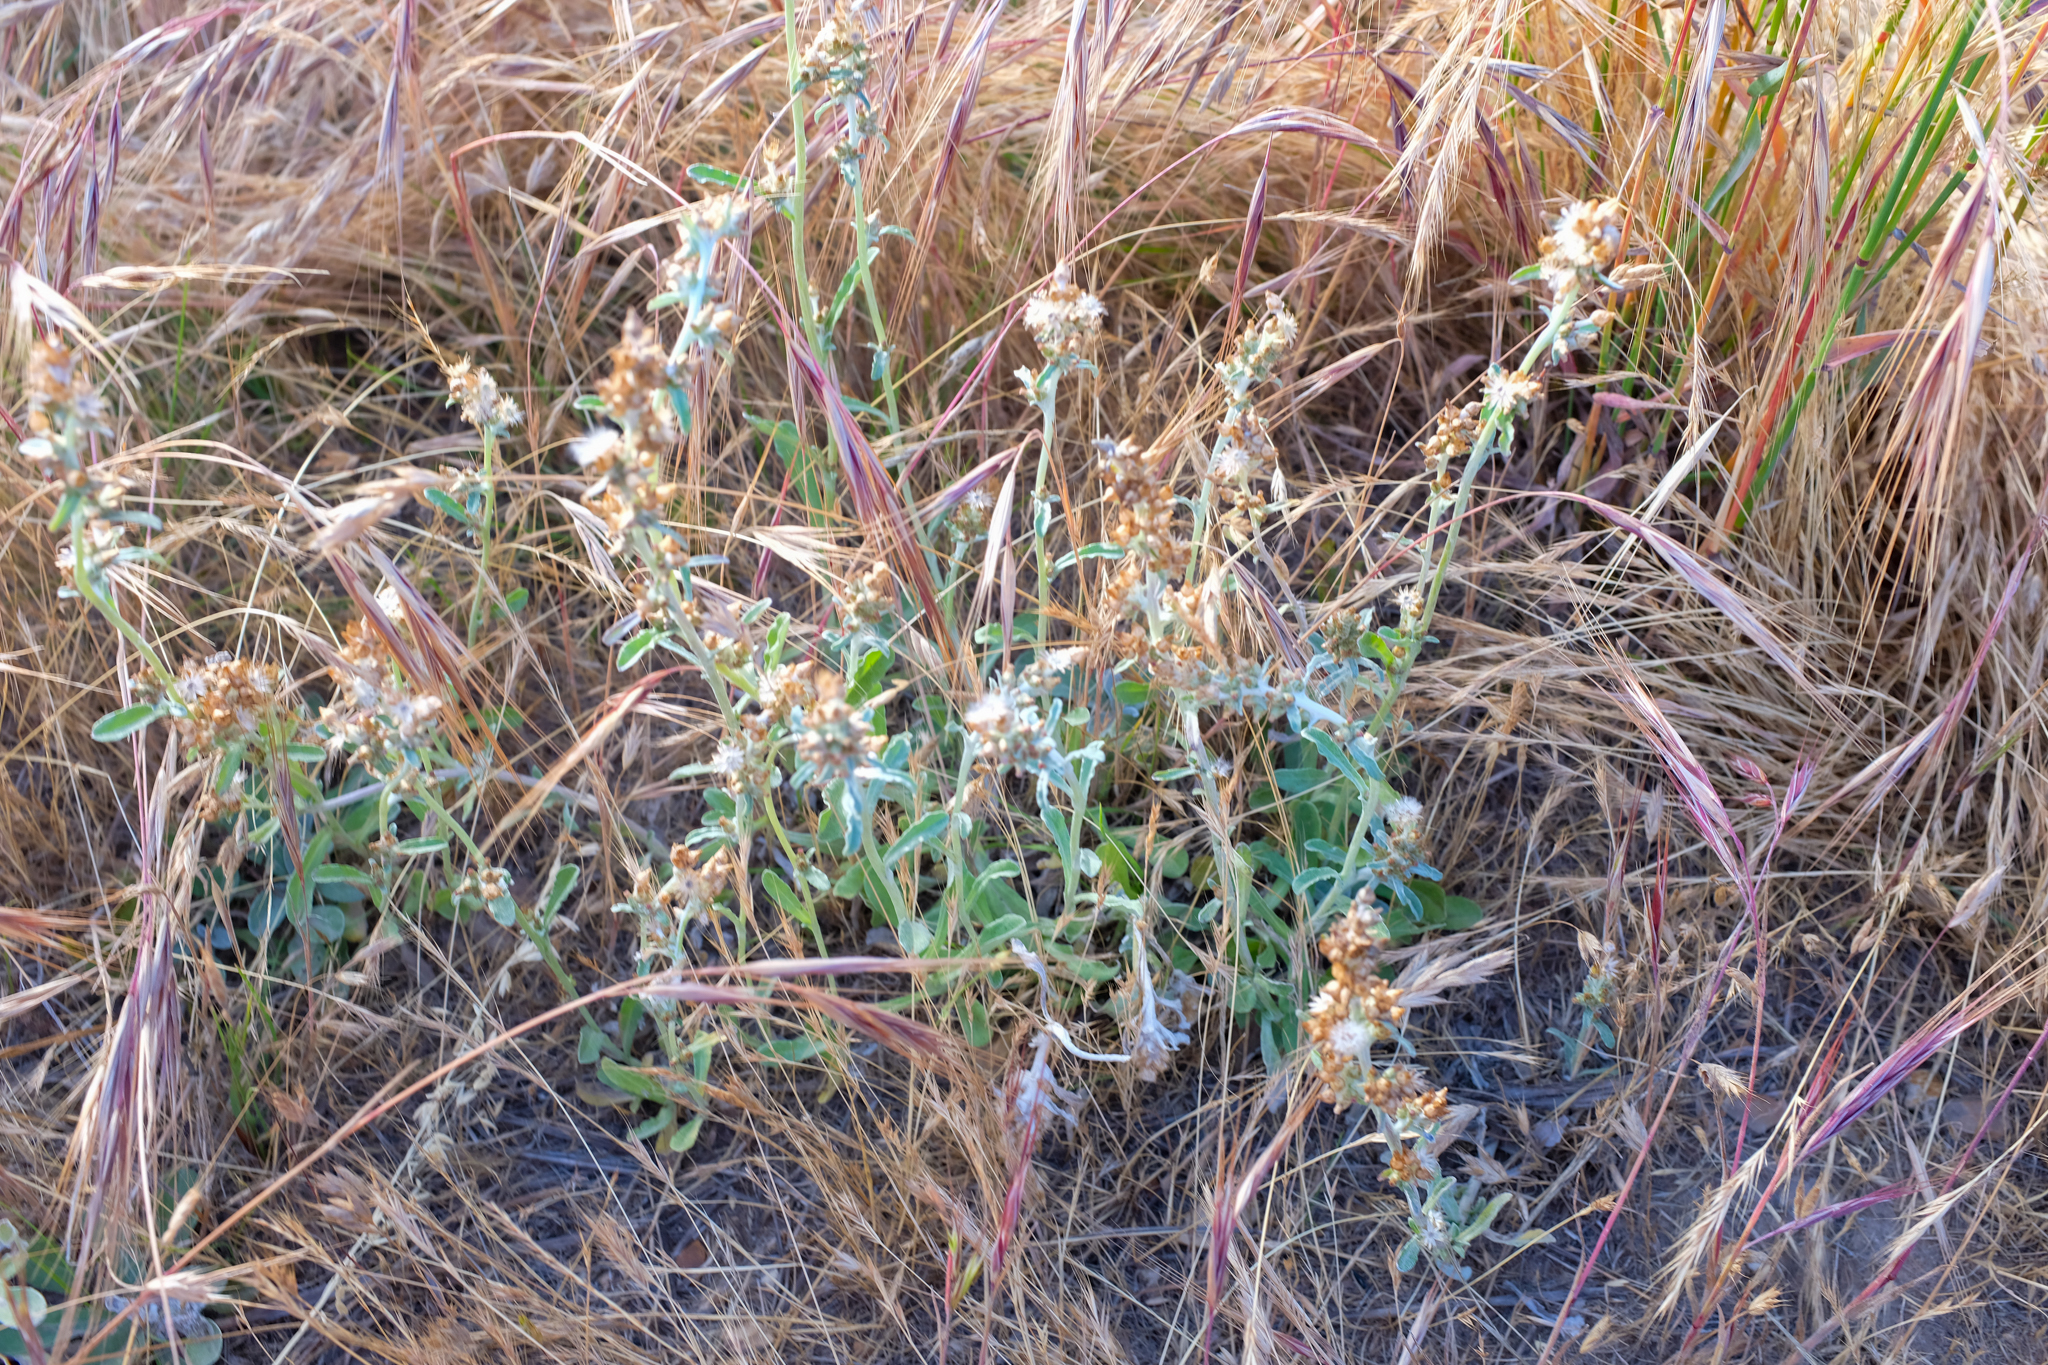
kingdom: Plantae
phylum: Tracheophyta
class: Magnoliopsida
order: Asterales
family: Asteraceae
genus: Gamochaeta
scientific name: Gamochaeta ustulata
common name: Pacific cudweed
